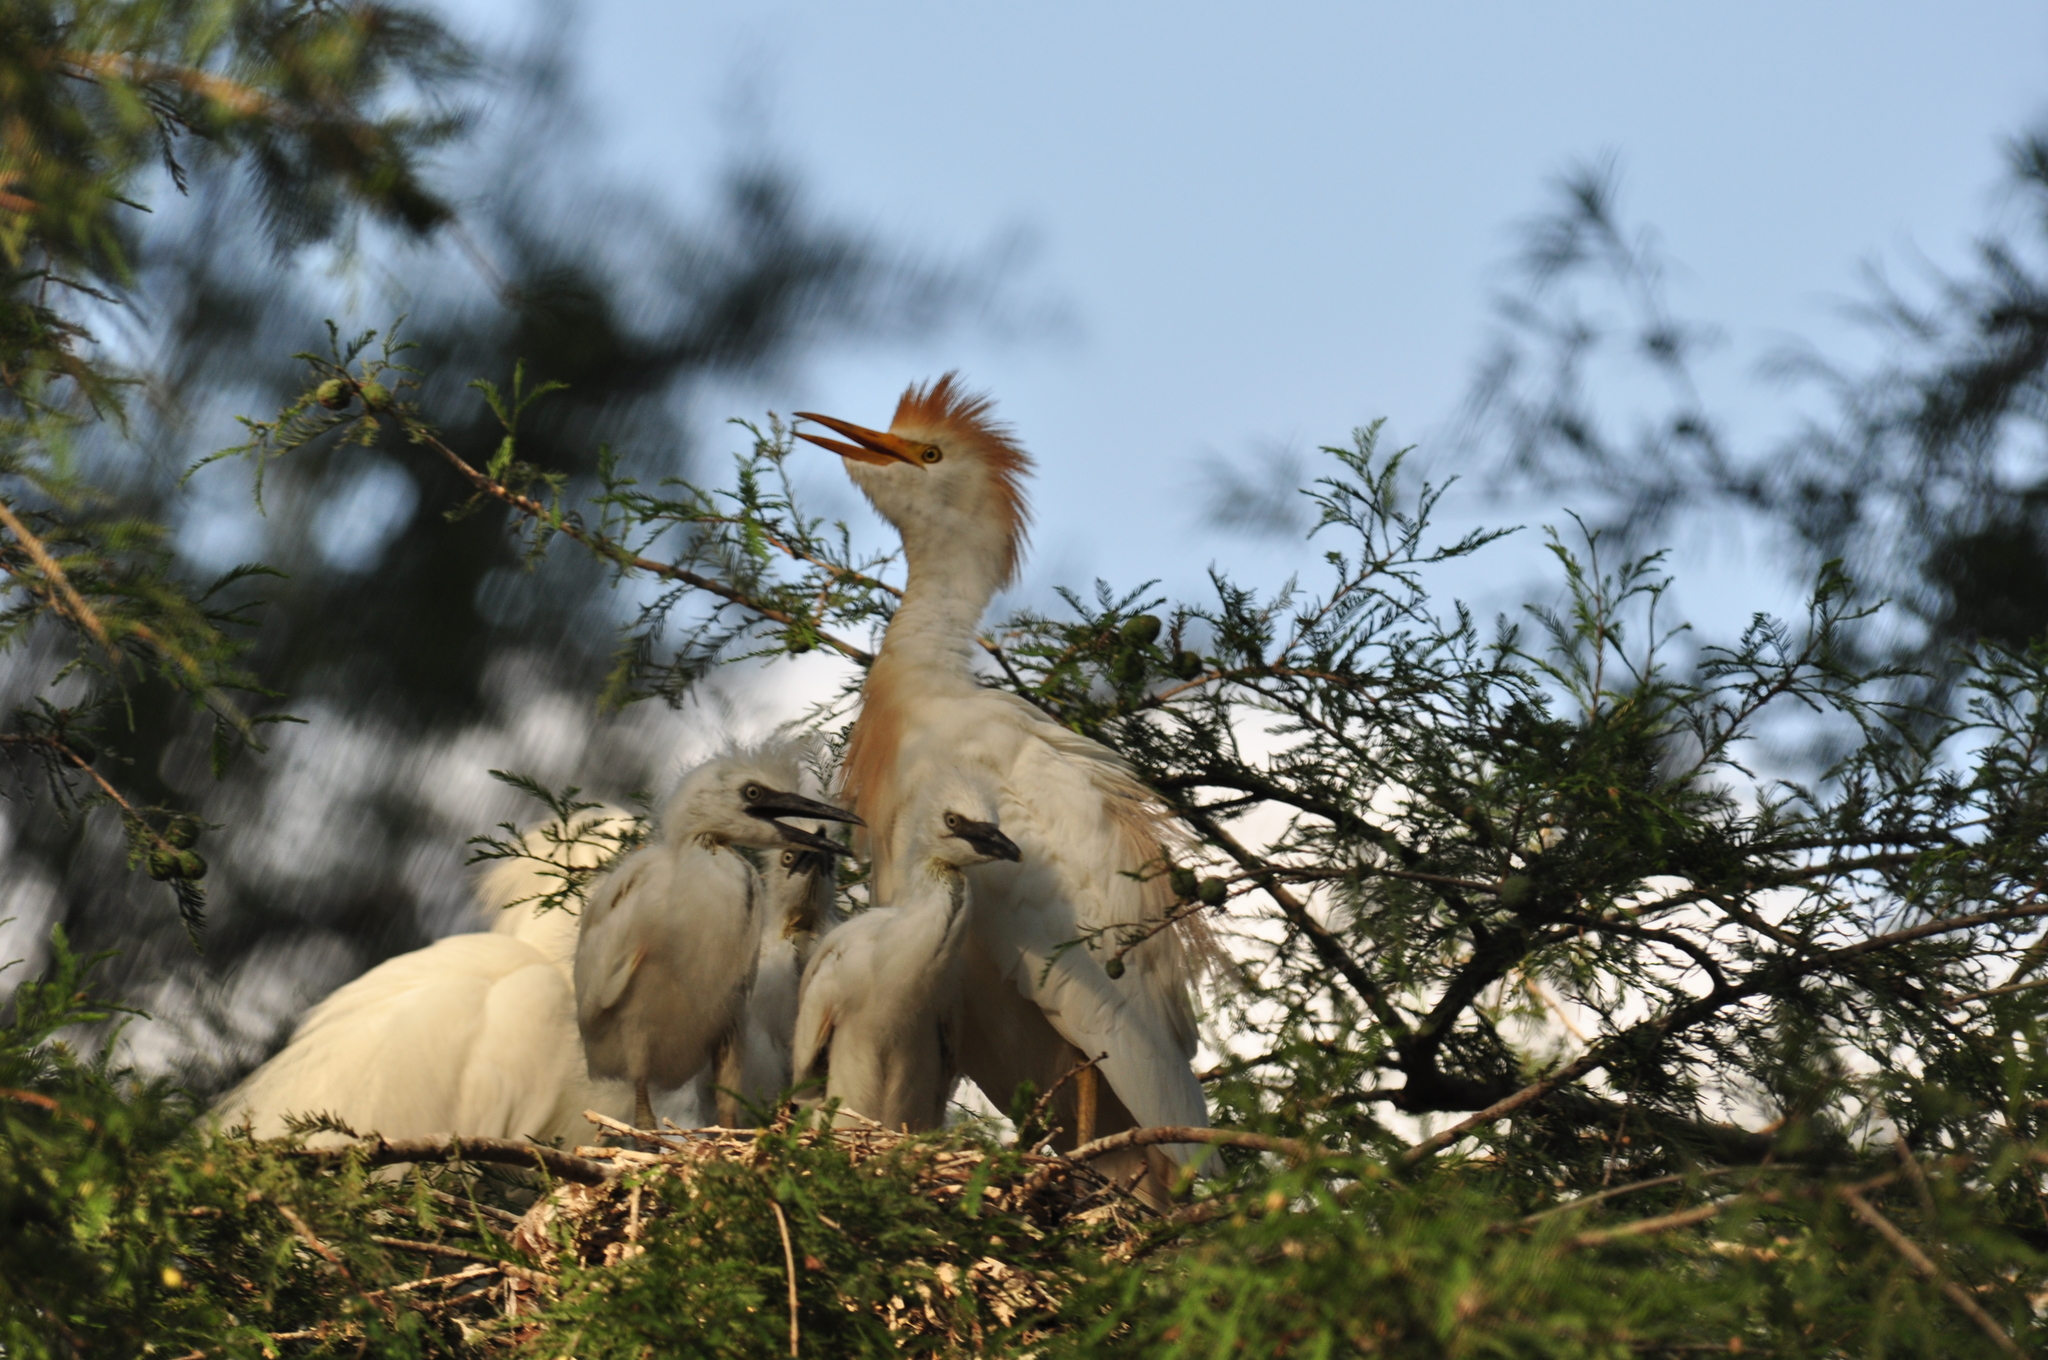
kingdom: Animalia
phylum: Chordata
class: Aves
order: Pelecaniformes
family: Ardeidae
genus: Bubulcus
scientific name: Bubulcus ibis
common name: Cattle egret
